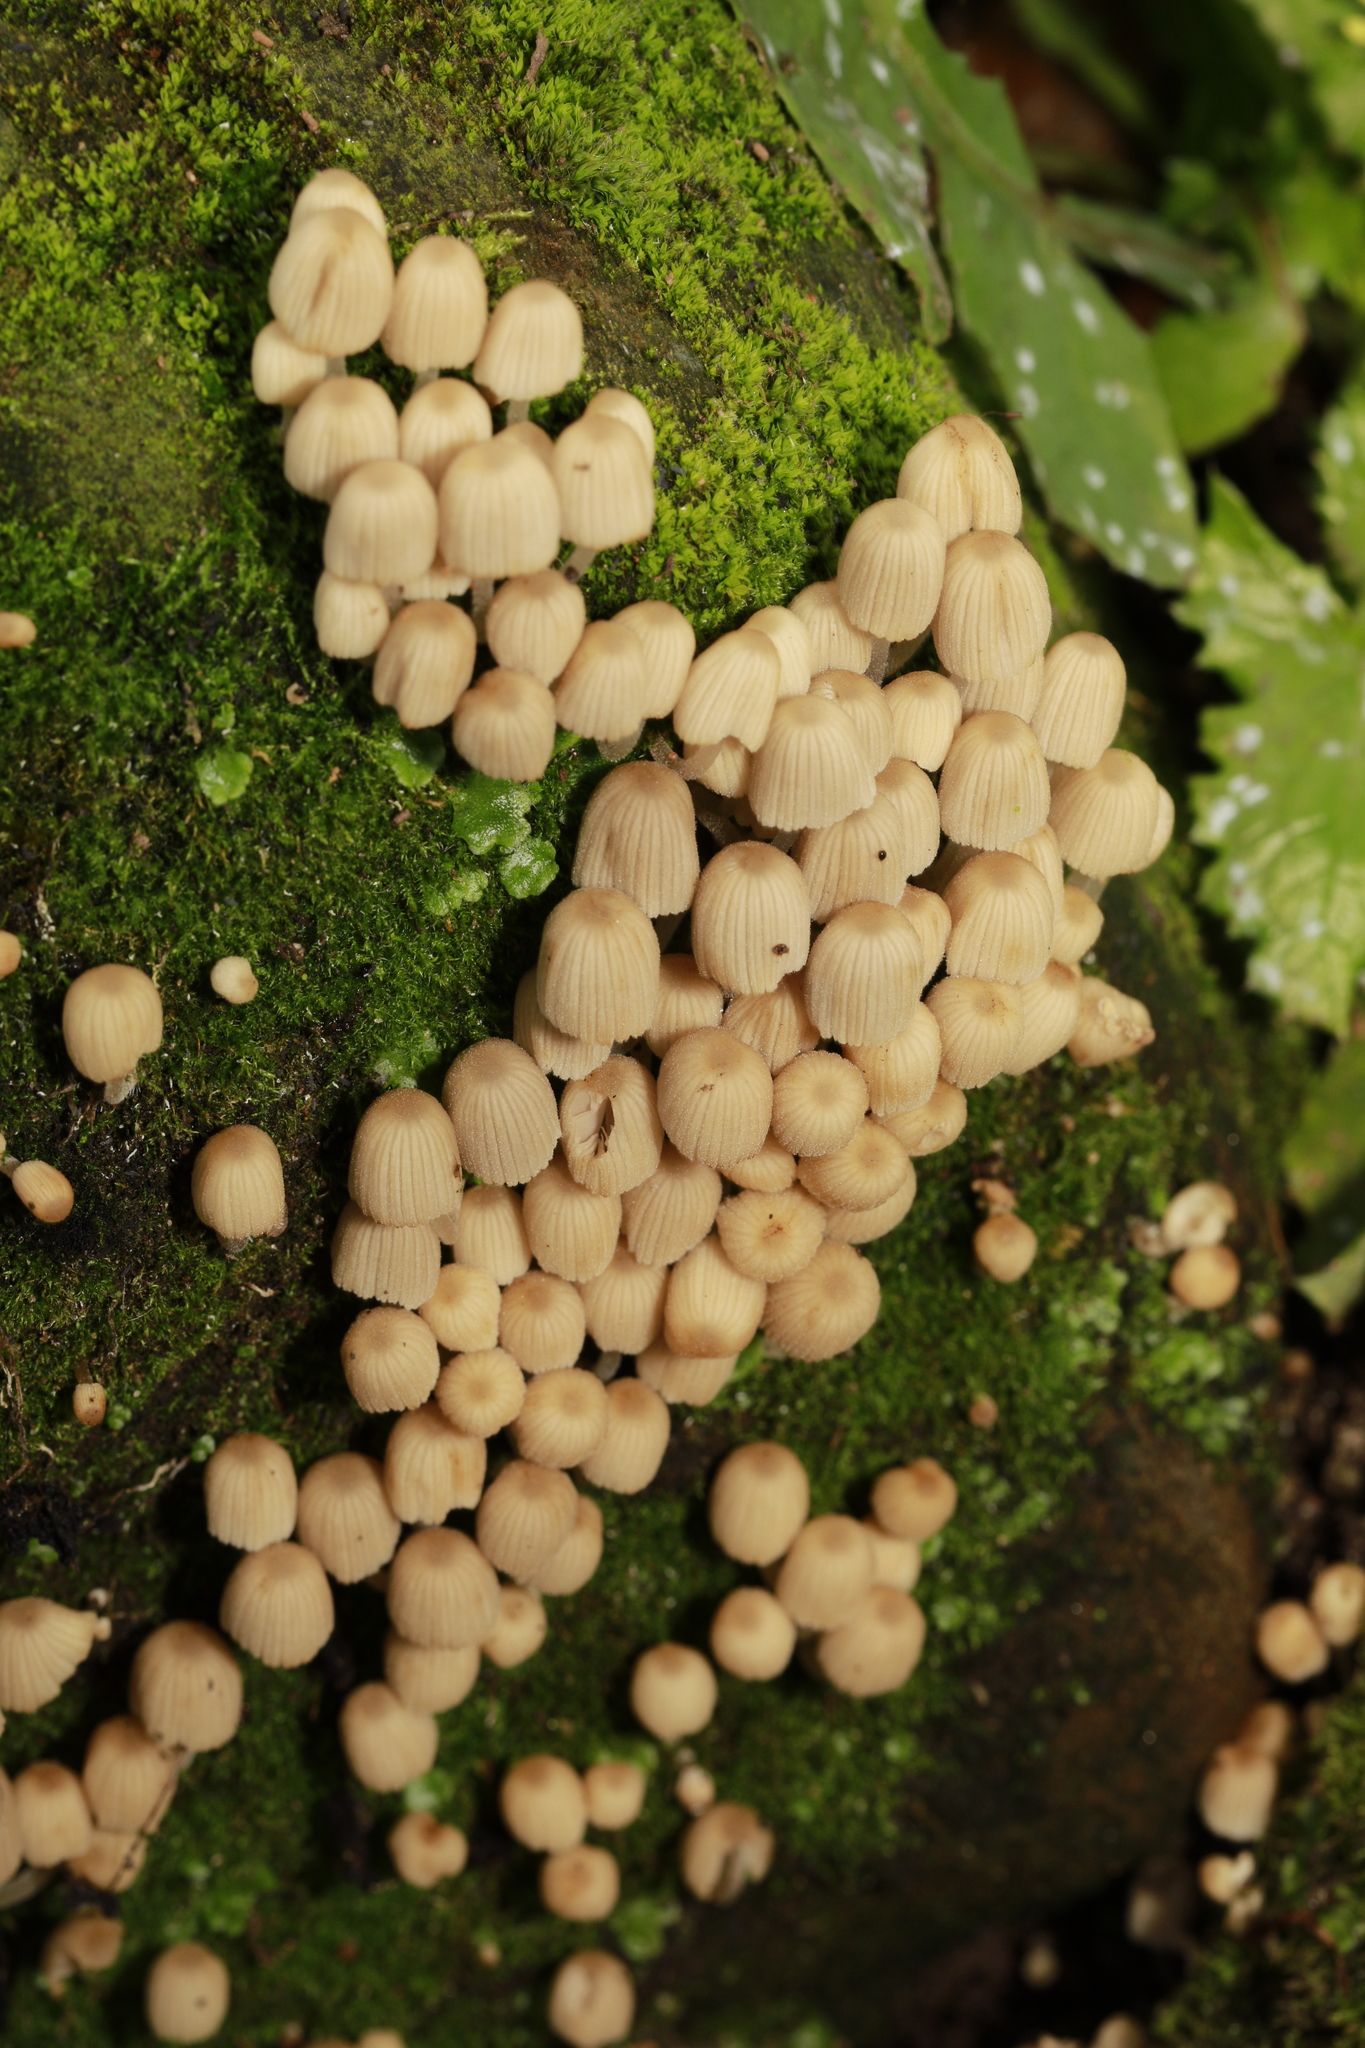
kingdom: Fungi
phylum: Basidiomycota
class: Agaricomycetes
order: Agaricales
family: Psathyrellaceae
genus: Coprinellus
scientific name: Coprinellus disseminatus
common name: Fairies' bonnets
